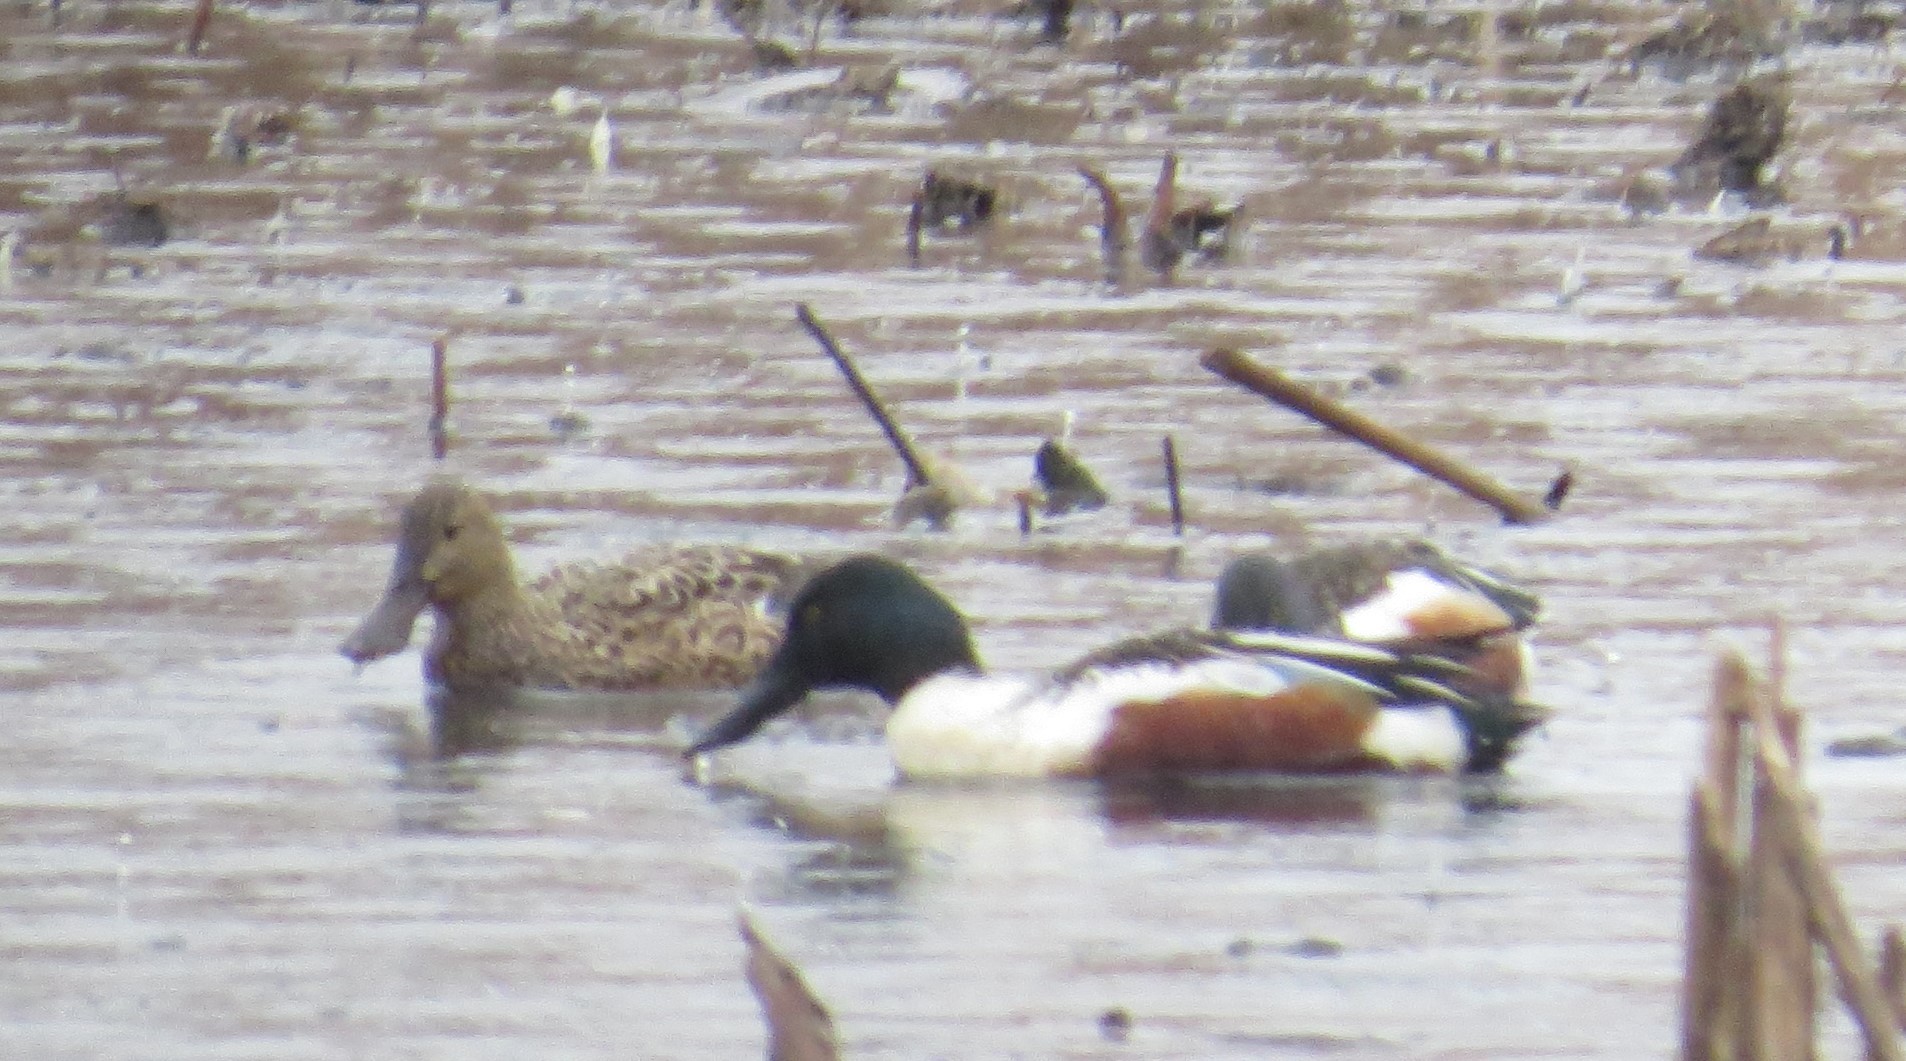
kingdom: Animalia
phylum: Chordata
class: Aves
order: Anseriformes
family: Anatidae
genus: Spatula
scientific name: Spatula clypeata
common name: Northern shoveler
